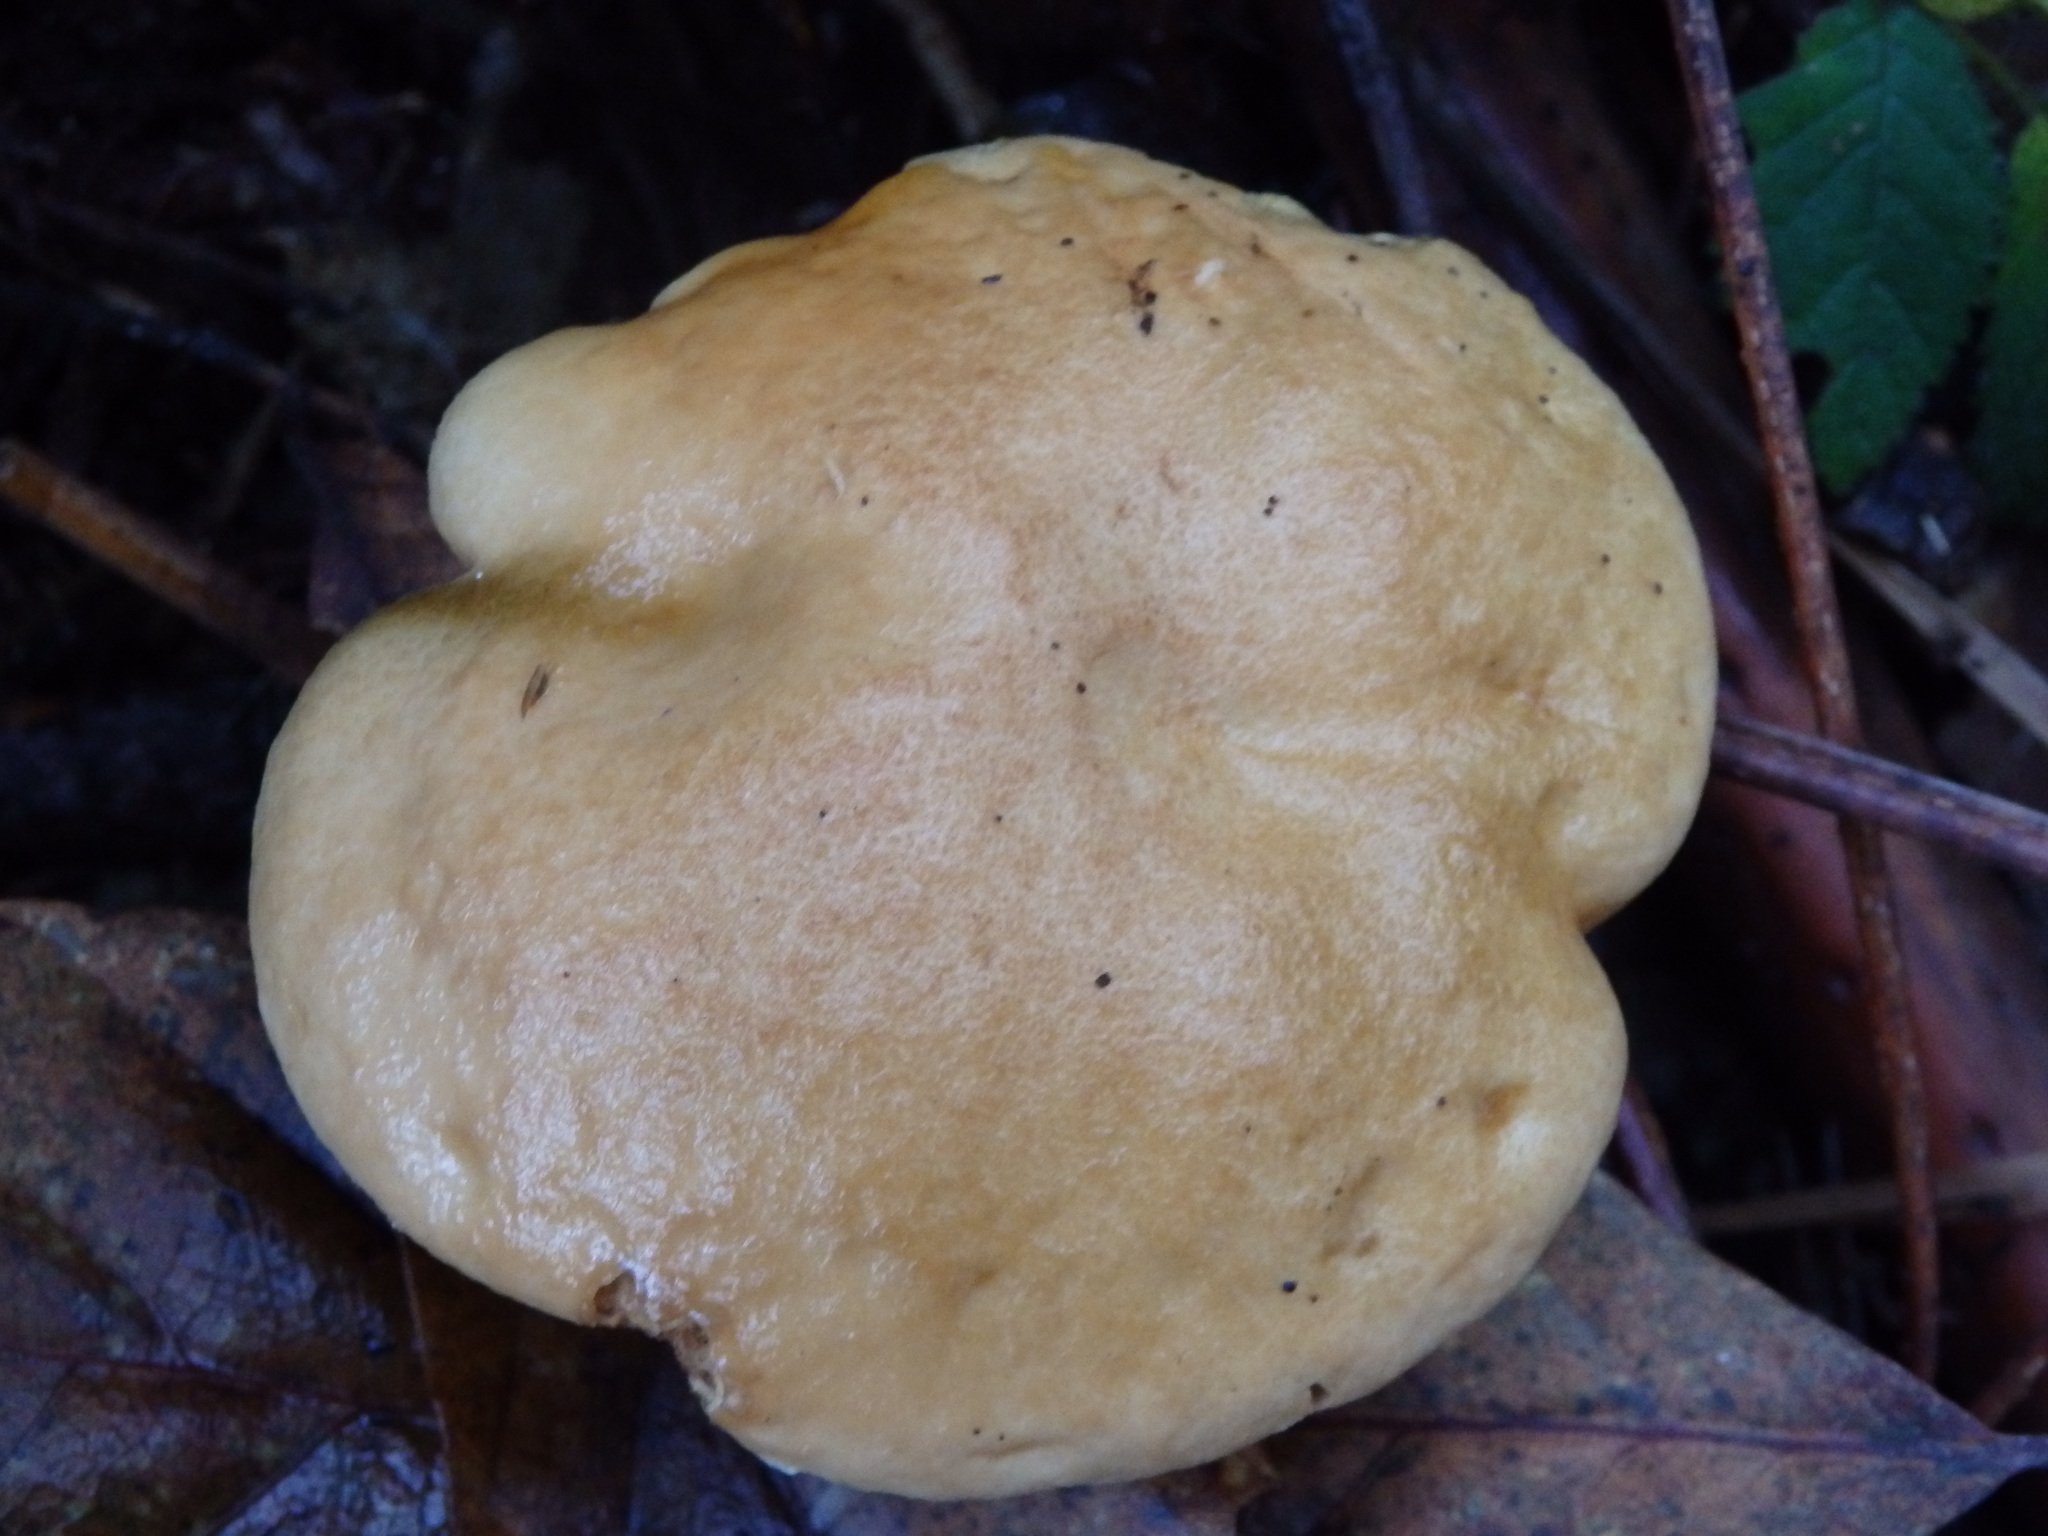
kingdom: Fungi
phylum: Basidiomycota
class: Agaricomycetes
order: Boletales
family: Suillaceae
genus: Suillus
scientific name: Suillus bovinus
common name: Bovine bolete
